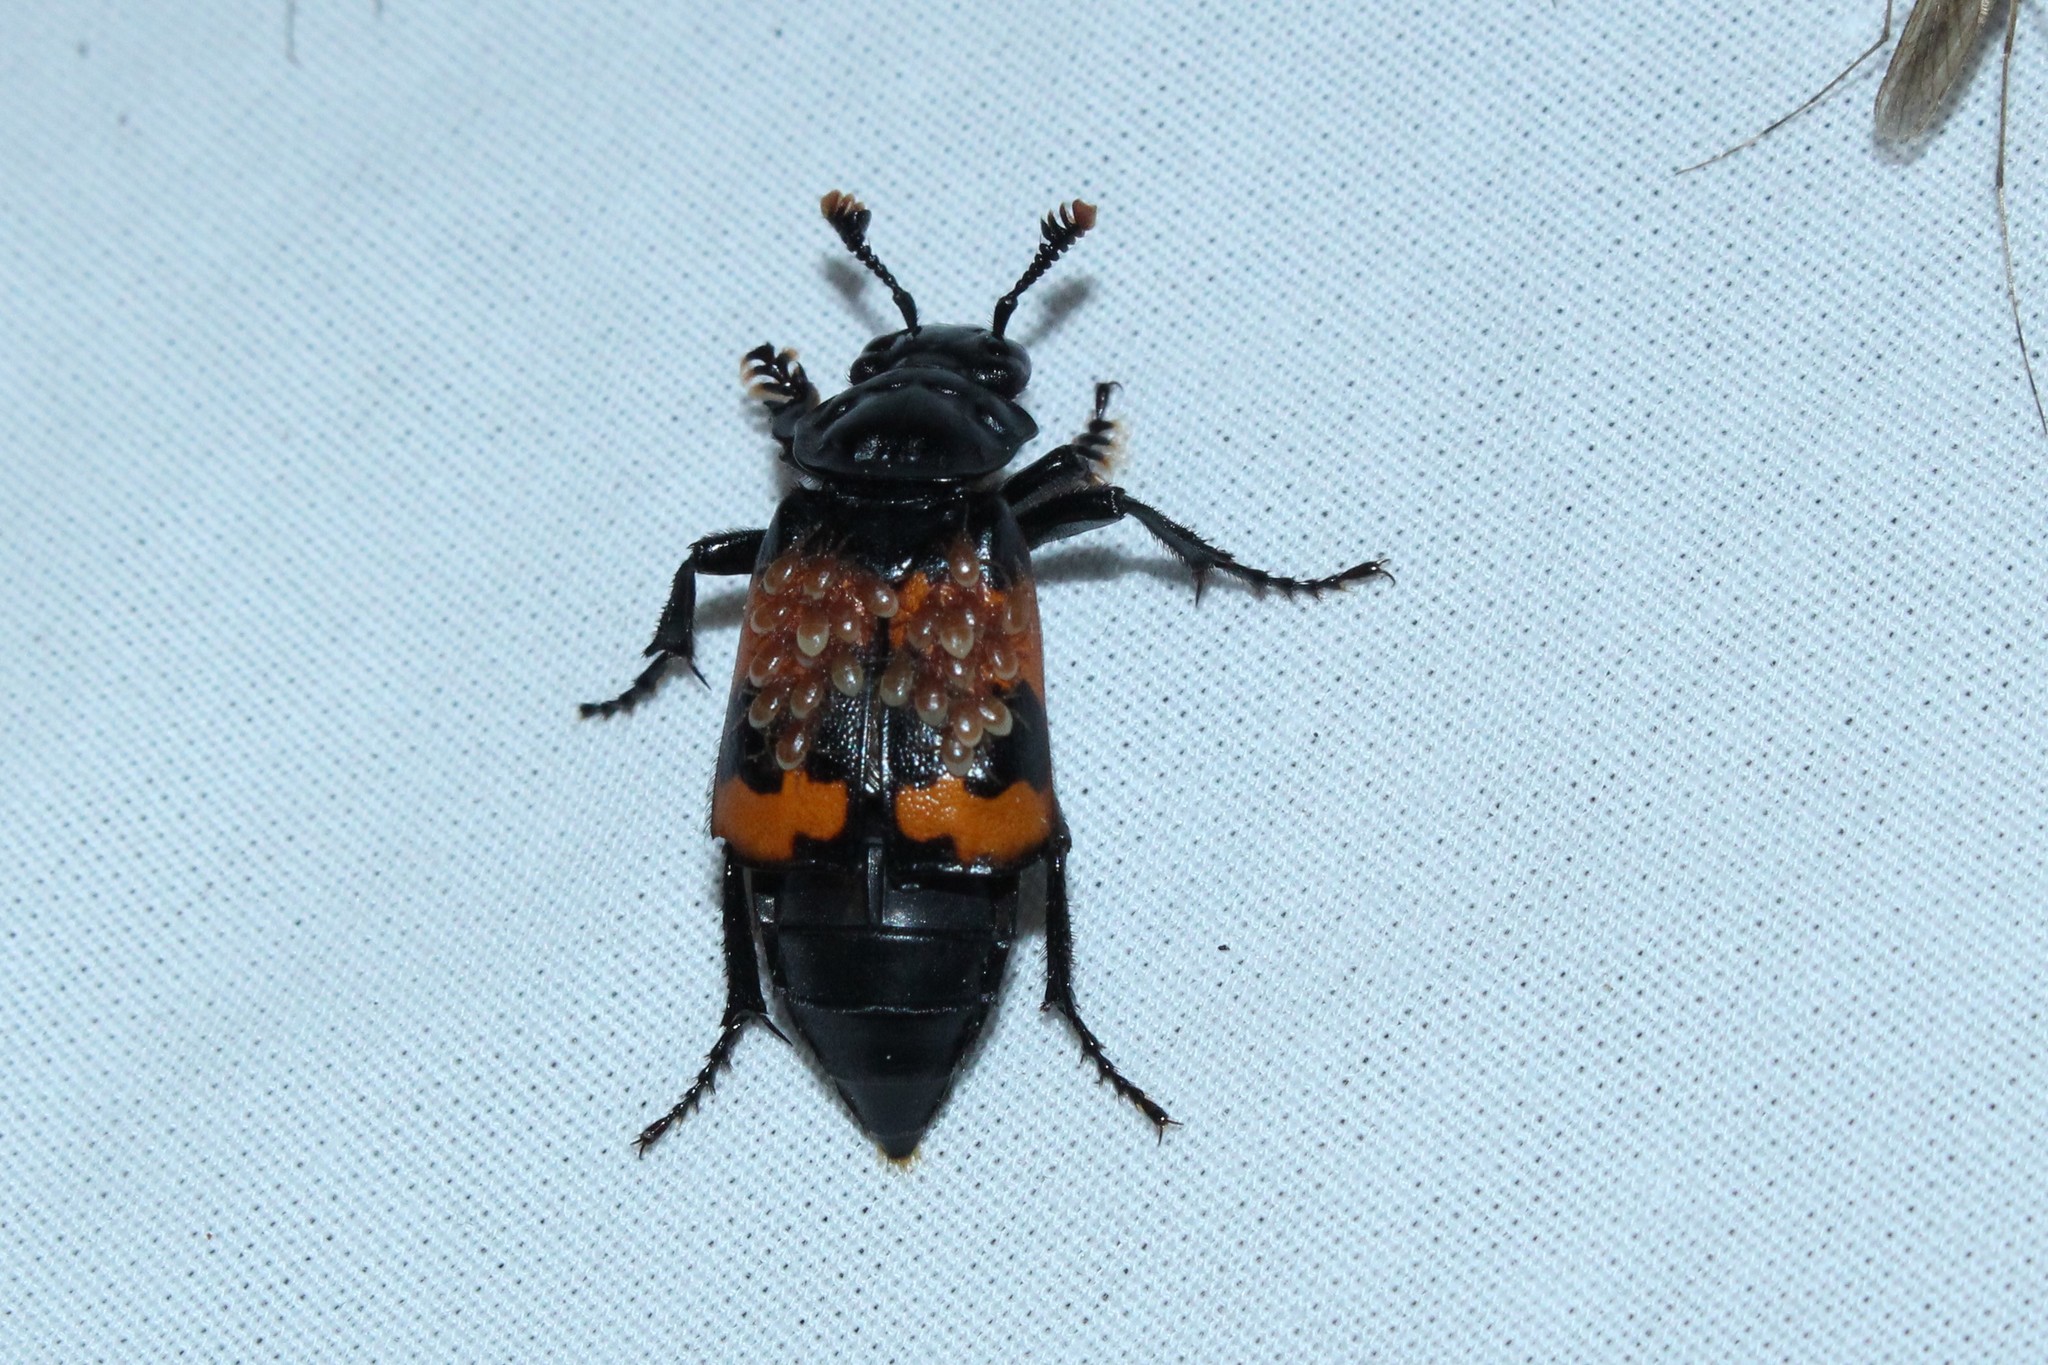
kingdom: Animalia
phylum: Arthropoda
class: Insecta
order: Coleoptera
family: Staphylinidae
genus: Nicrophorus
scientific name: Nicrophorus investigator
